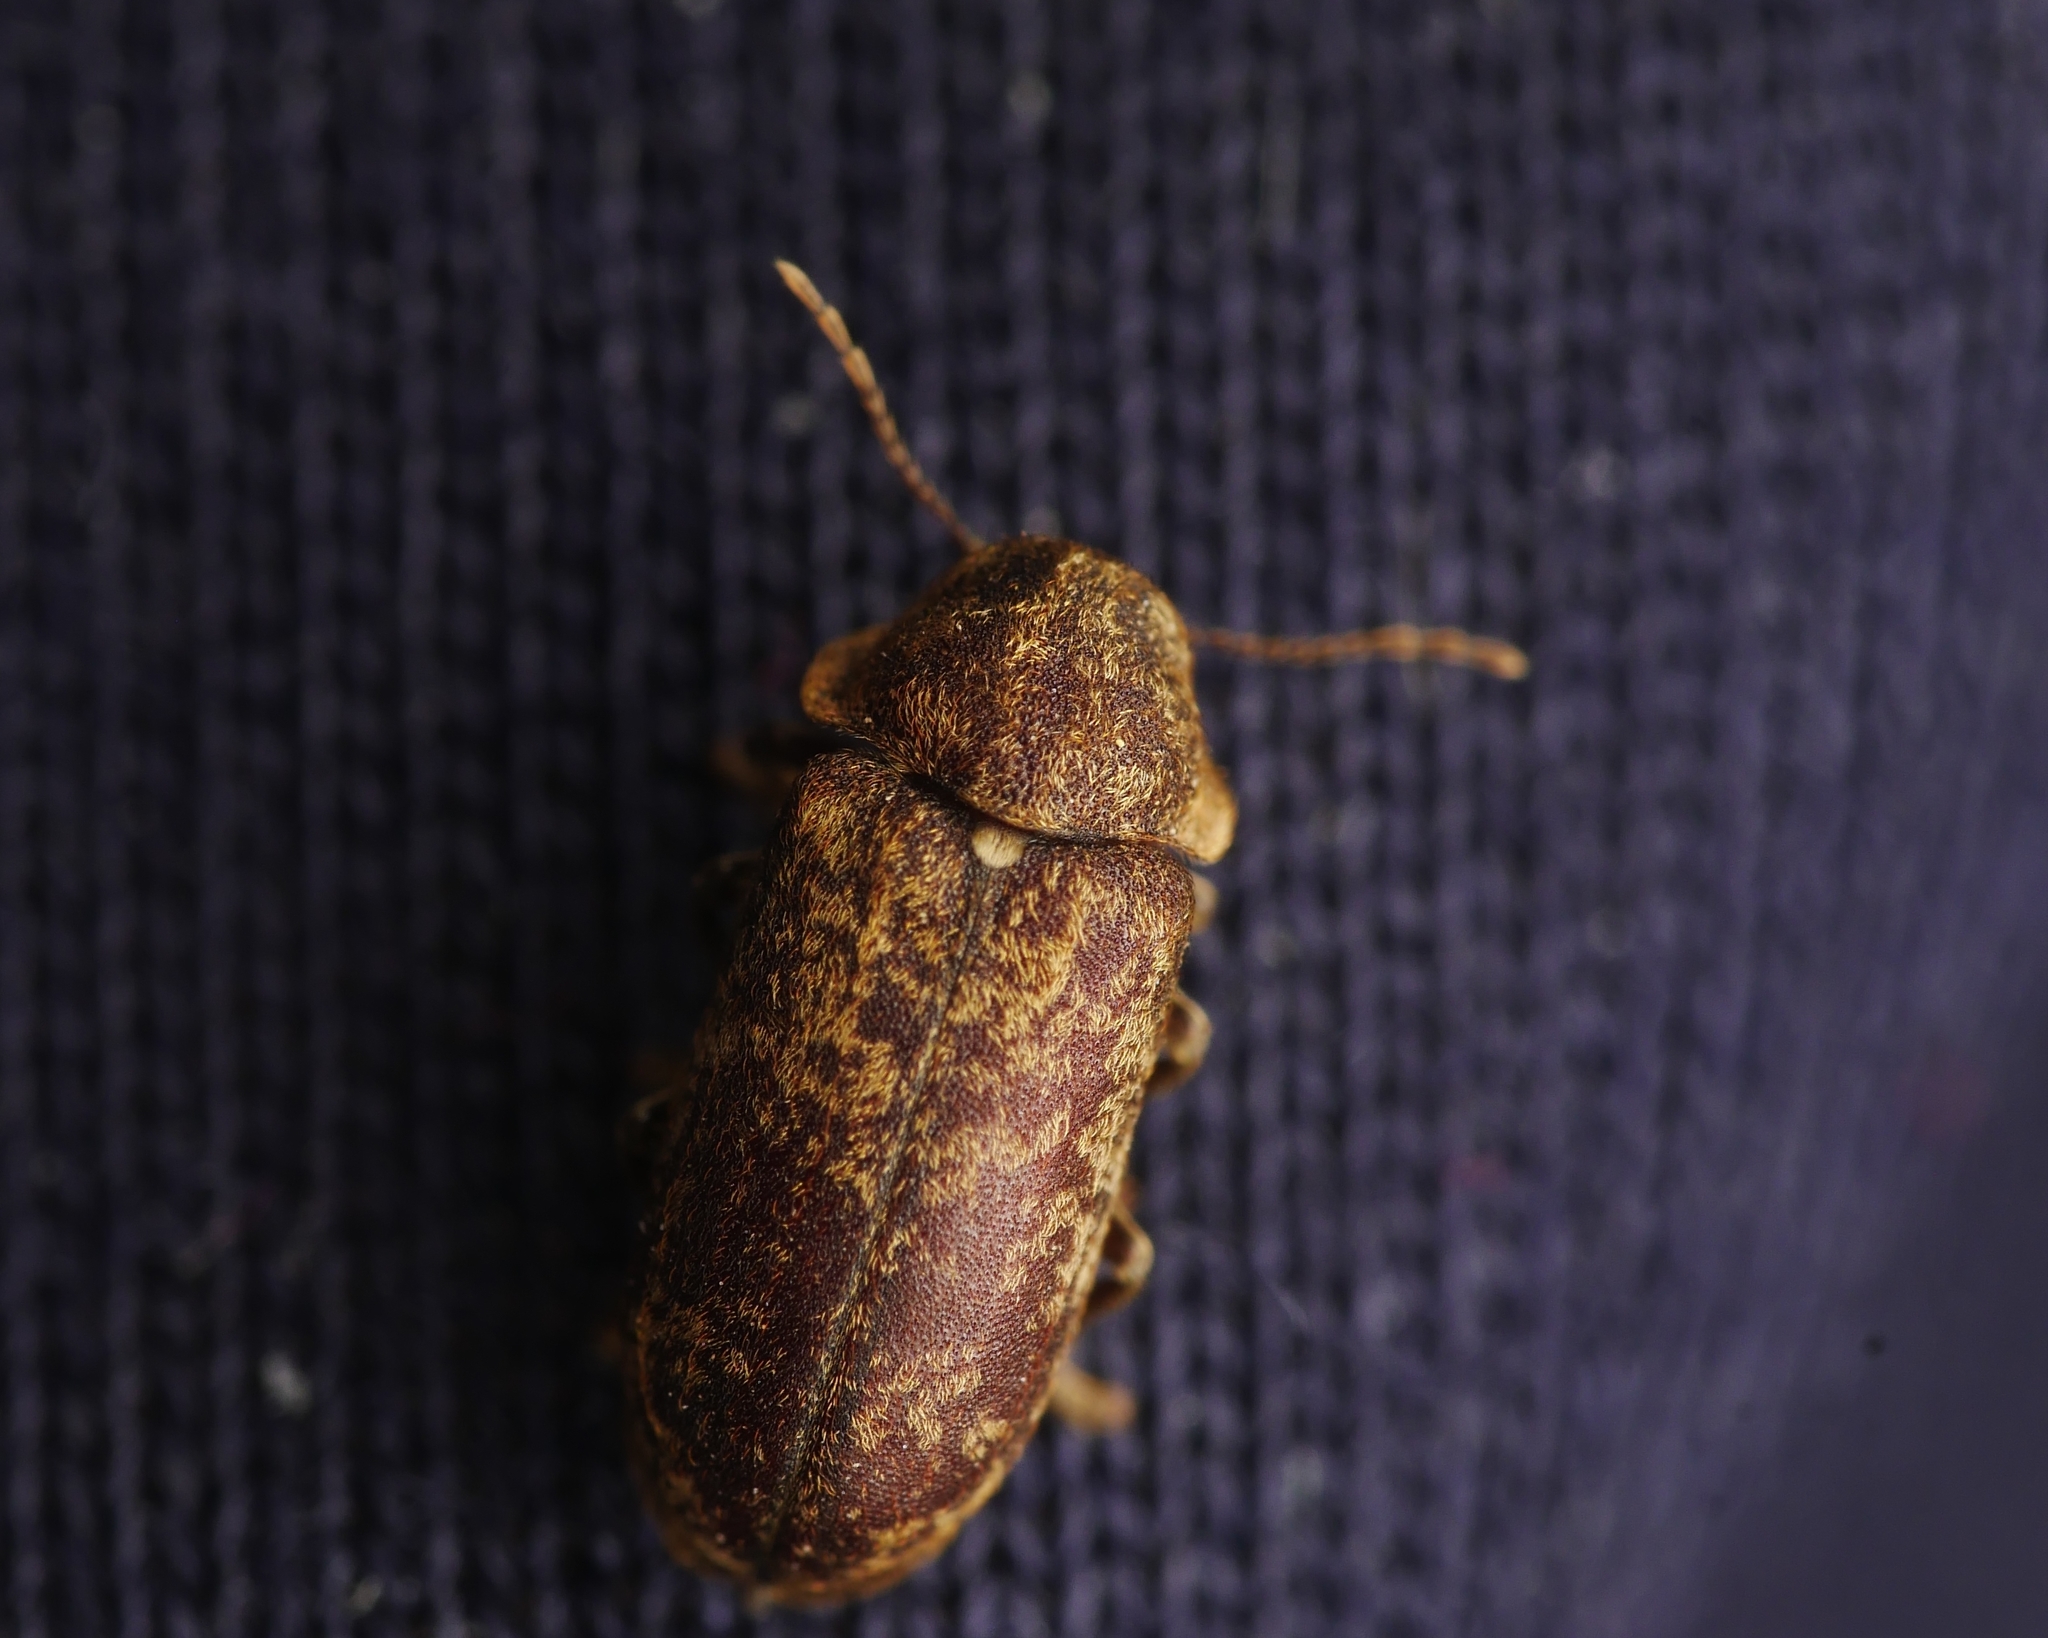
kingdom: Animalia
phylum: Arthropoda
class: Insecta
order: Coleoptera
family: Anobiidae
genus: Xestobium
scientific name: Xestobium rufovillosum
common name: Death-watch beetle
